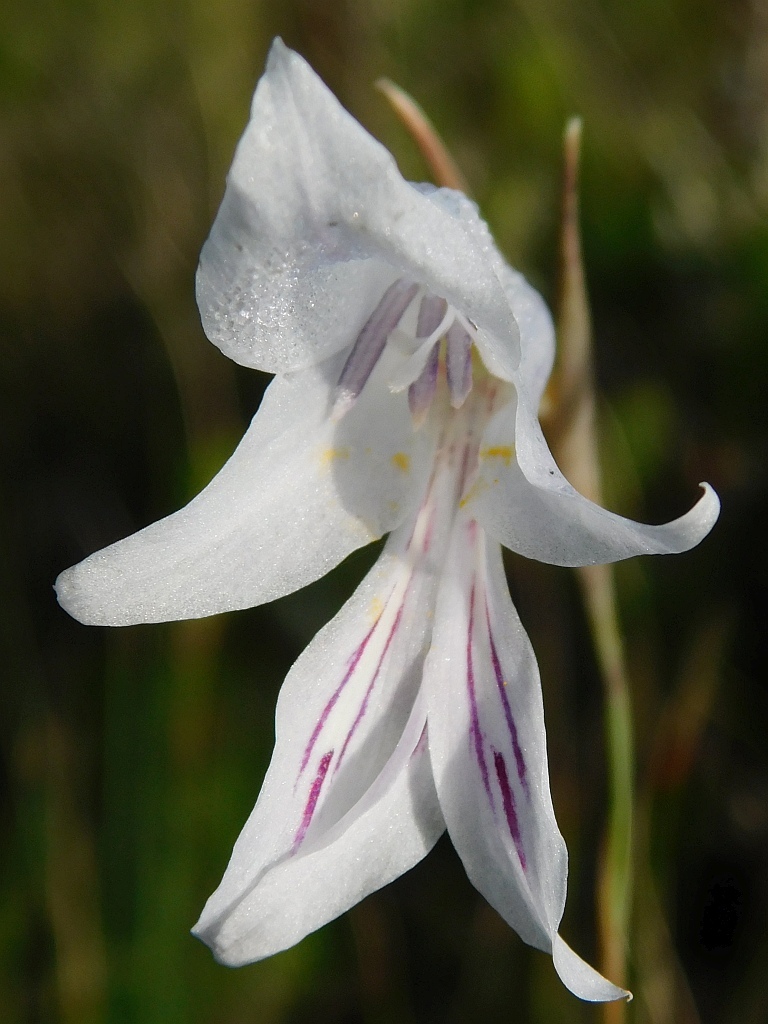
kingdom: Plantae
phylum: Tracheophyta
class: Liliopsida
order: Asparagales
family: Iridaceae
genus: Gladiolus
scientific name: Gladiolus vaginatus
